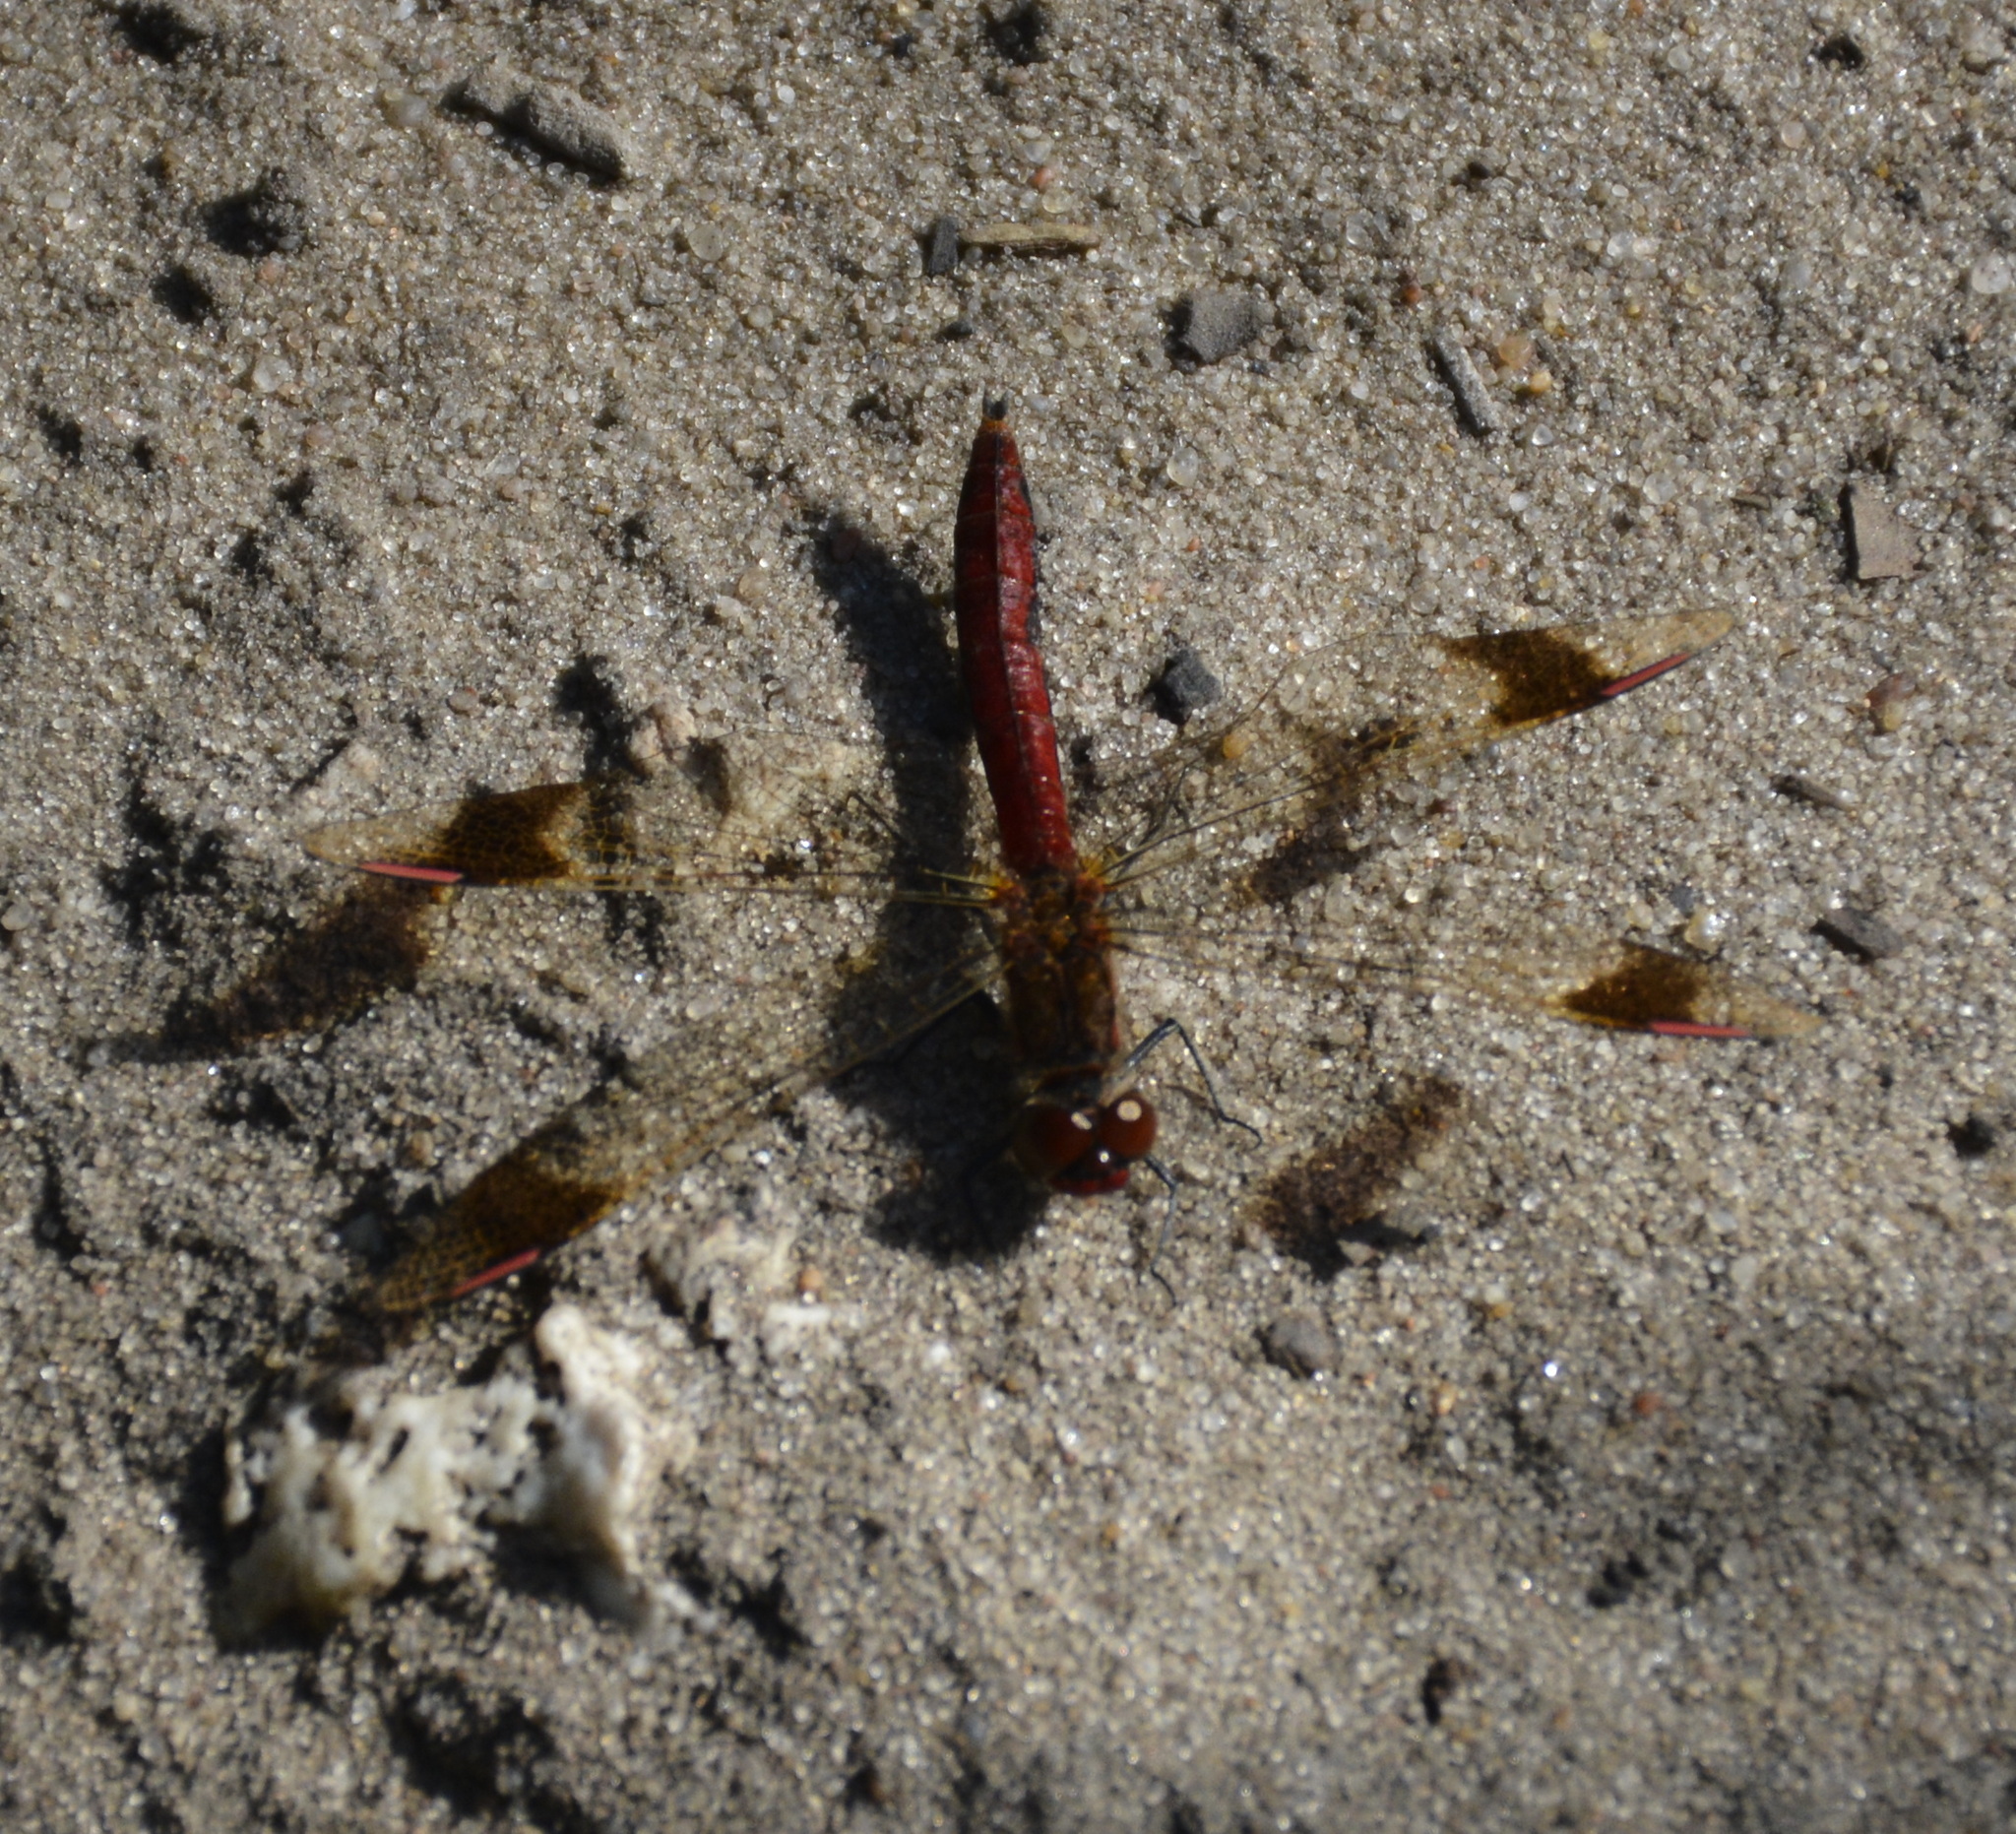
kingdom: Animalia
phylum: Arthropoda
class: Insecta
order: Odonata
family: Libellulidae
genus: Sympetrum
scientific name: Sympetrum pedemontanum
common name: Banded darter
